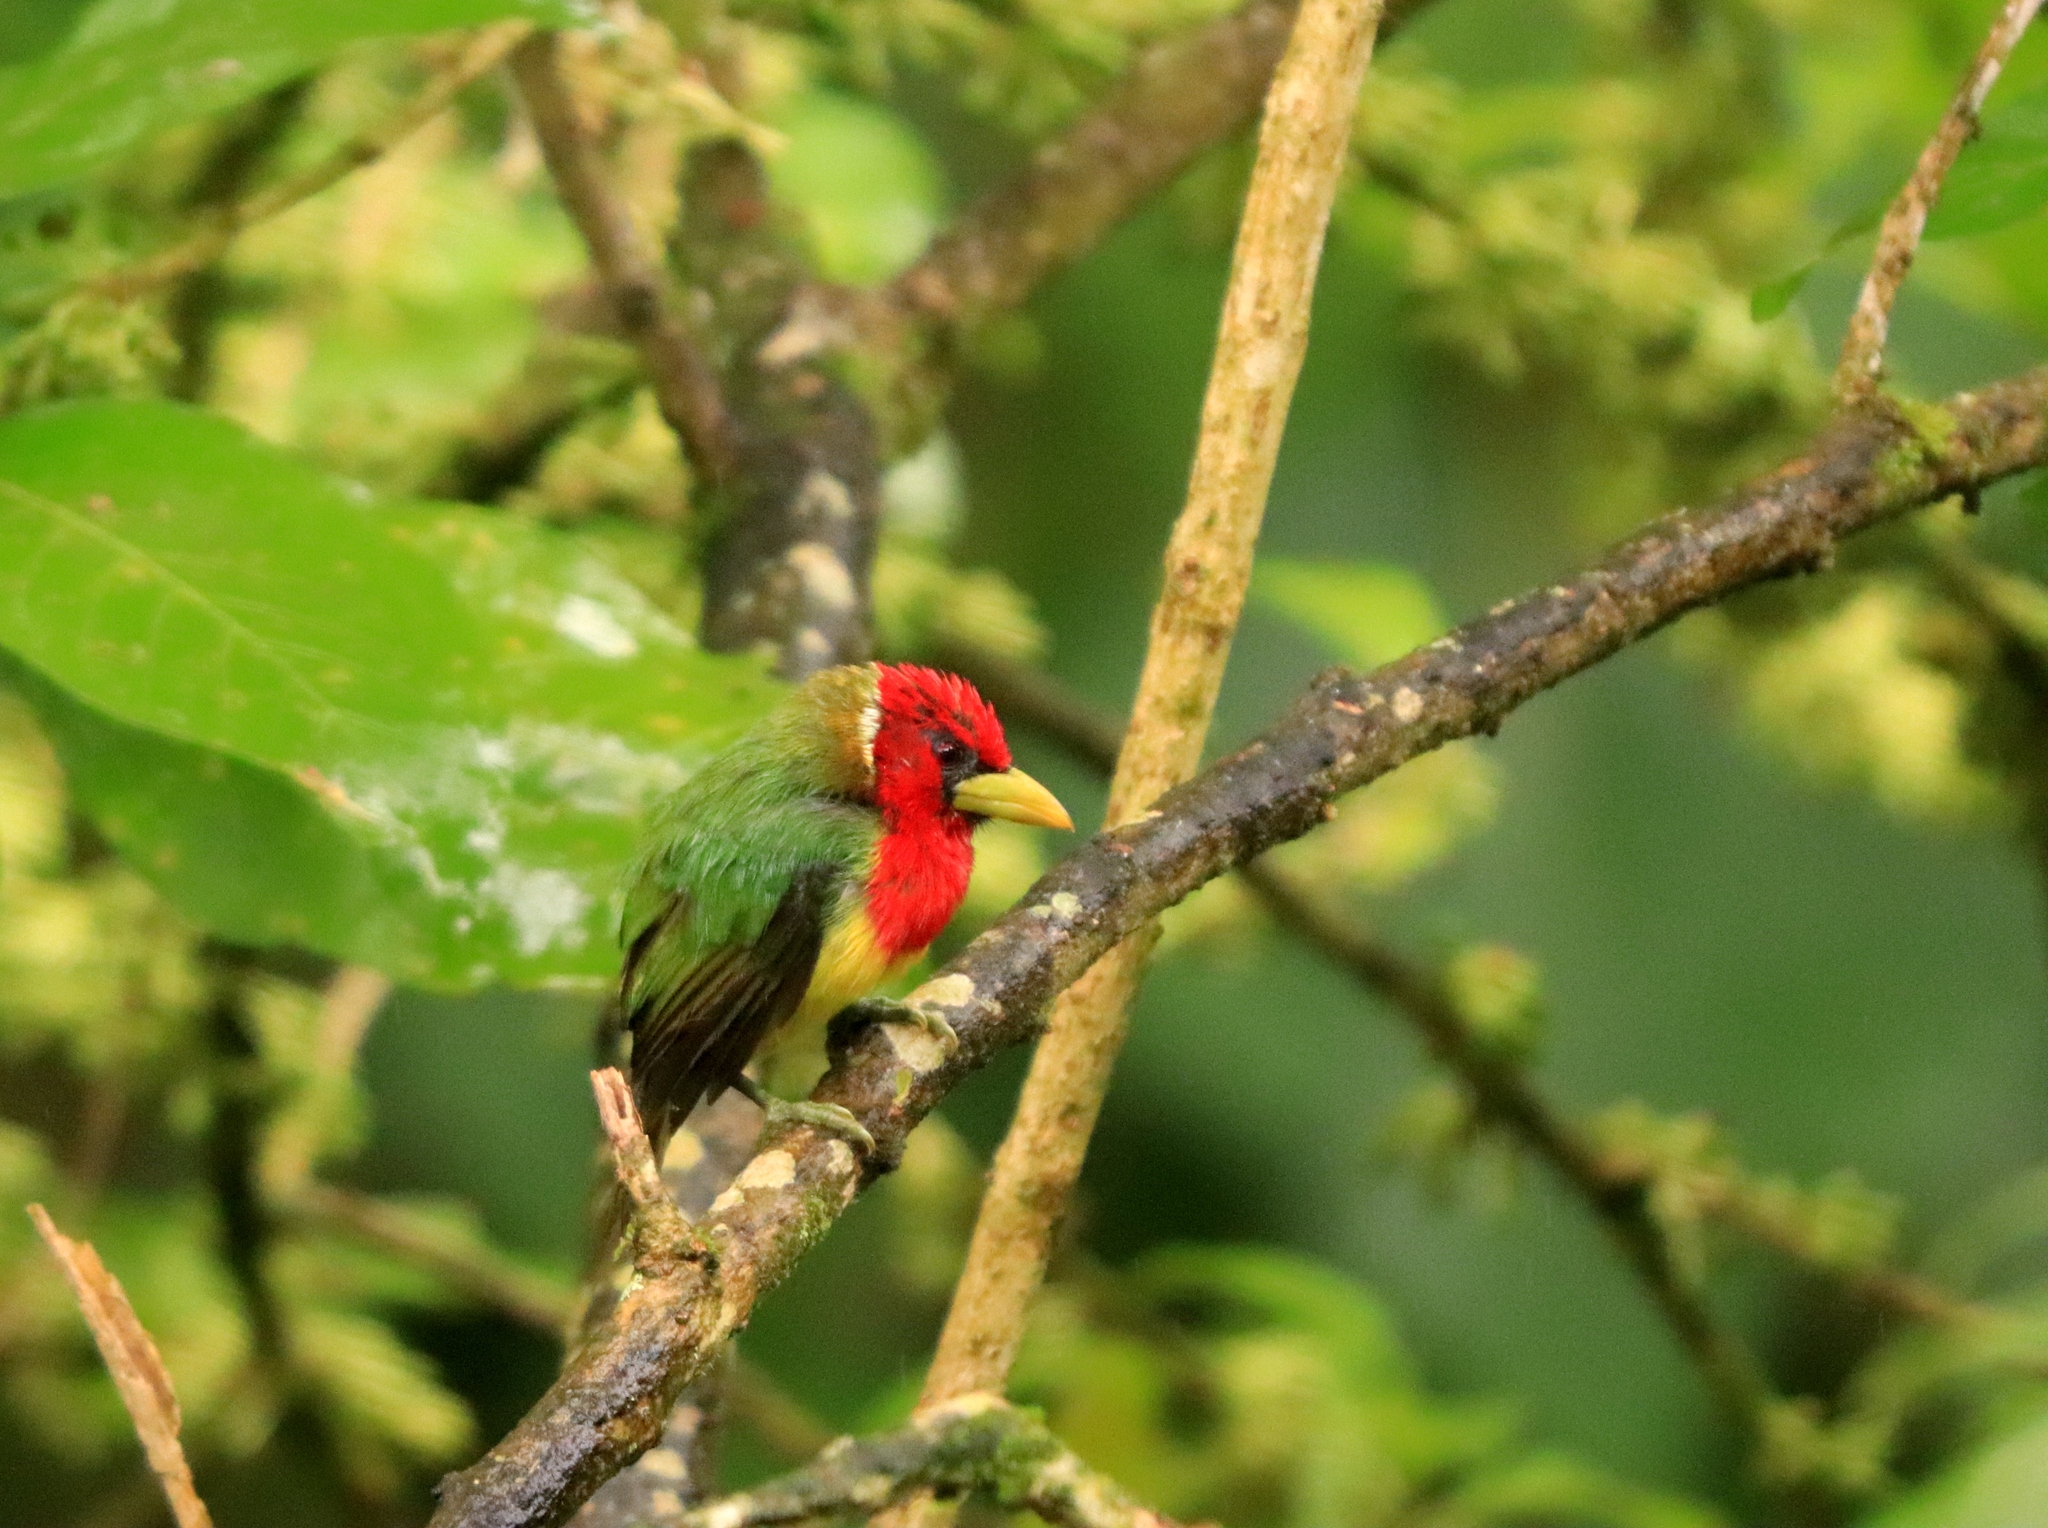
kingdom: Animalia
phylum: Chordata
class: Aves
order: Piciformes
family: Capitonidae
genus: Eubucco
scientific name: Eubucco bourcierii
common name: Red-headed barbet
